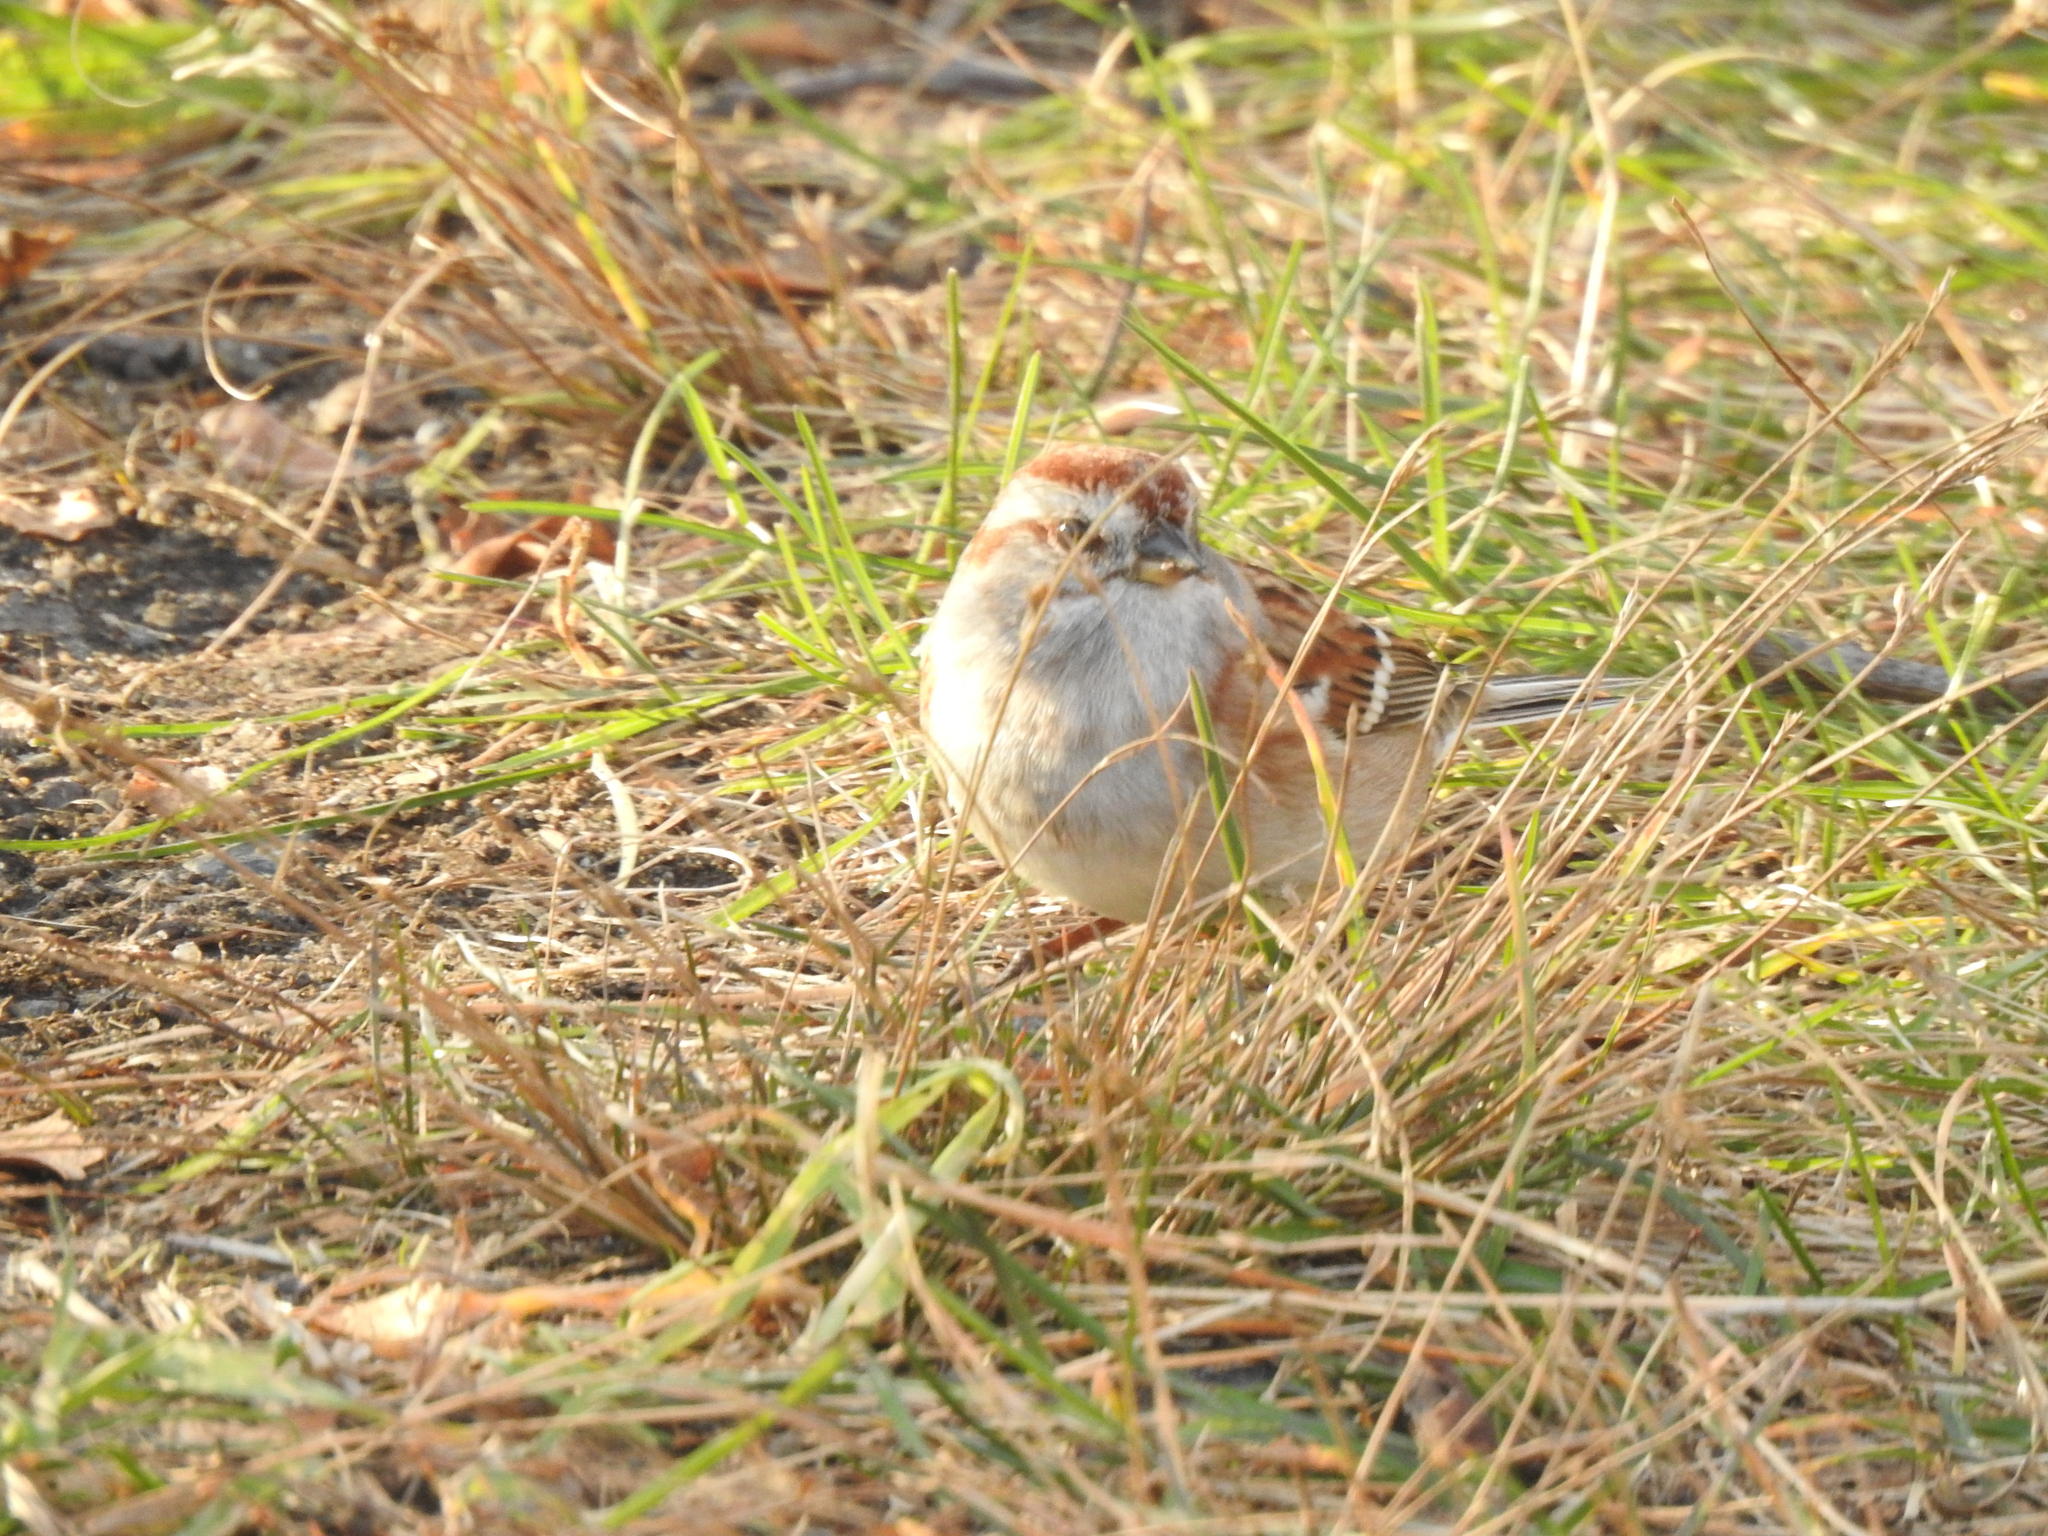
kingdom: Animalia
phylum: Chordata
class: Aves
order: Passeriformes
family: Passerellidae
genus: Spizelloides
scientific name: Spizelloides arborea
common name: American tree sparrow
